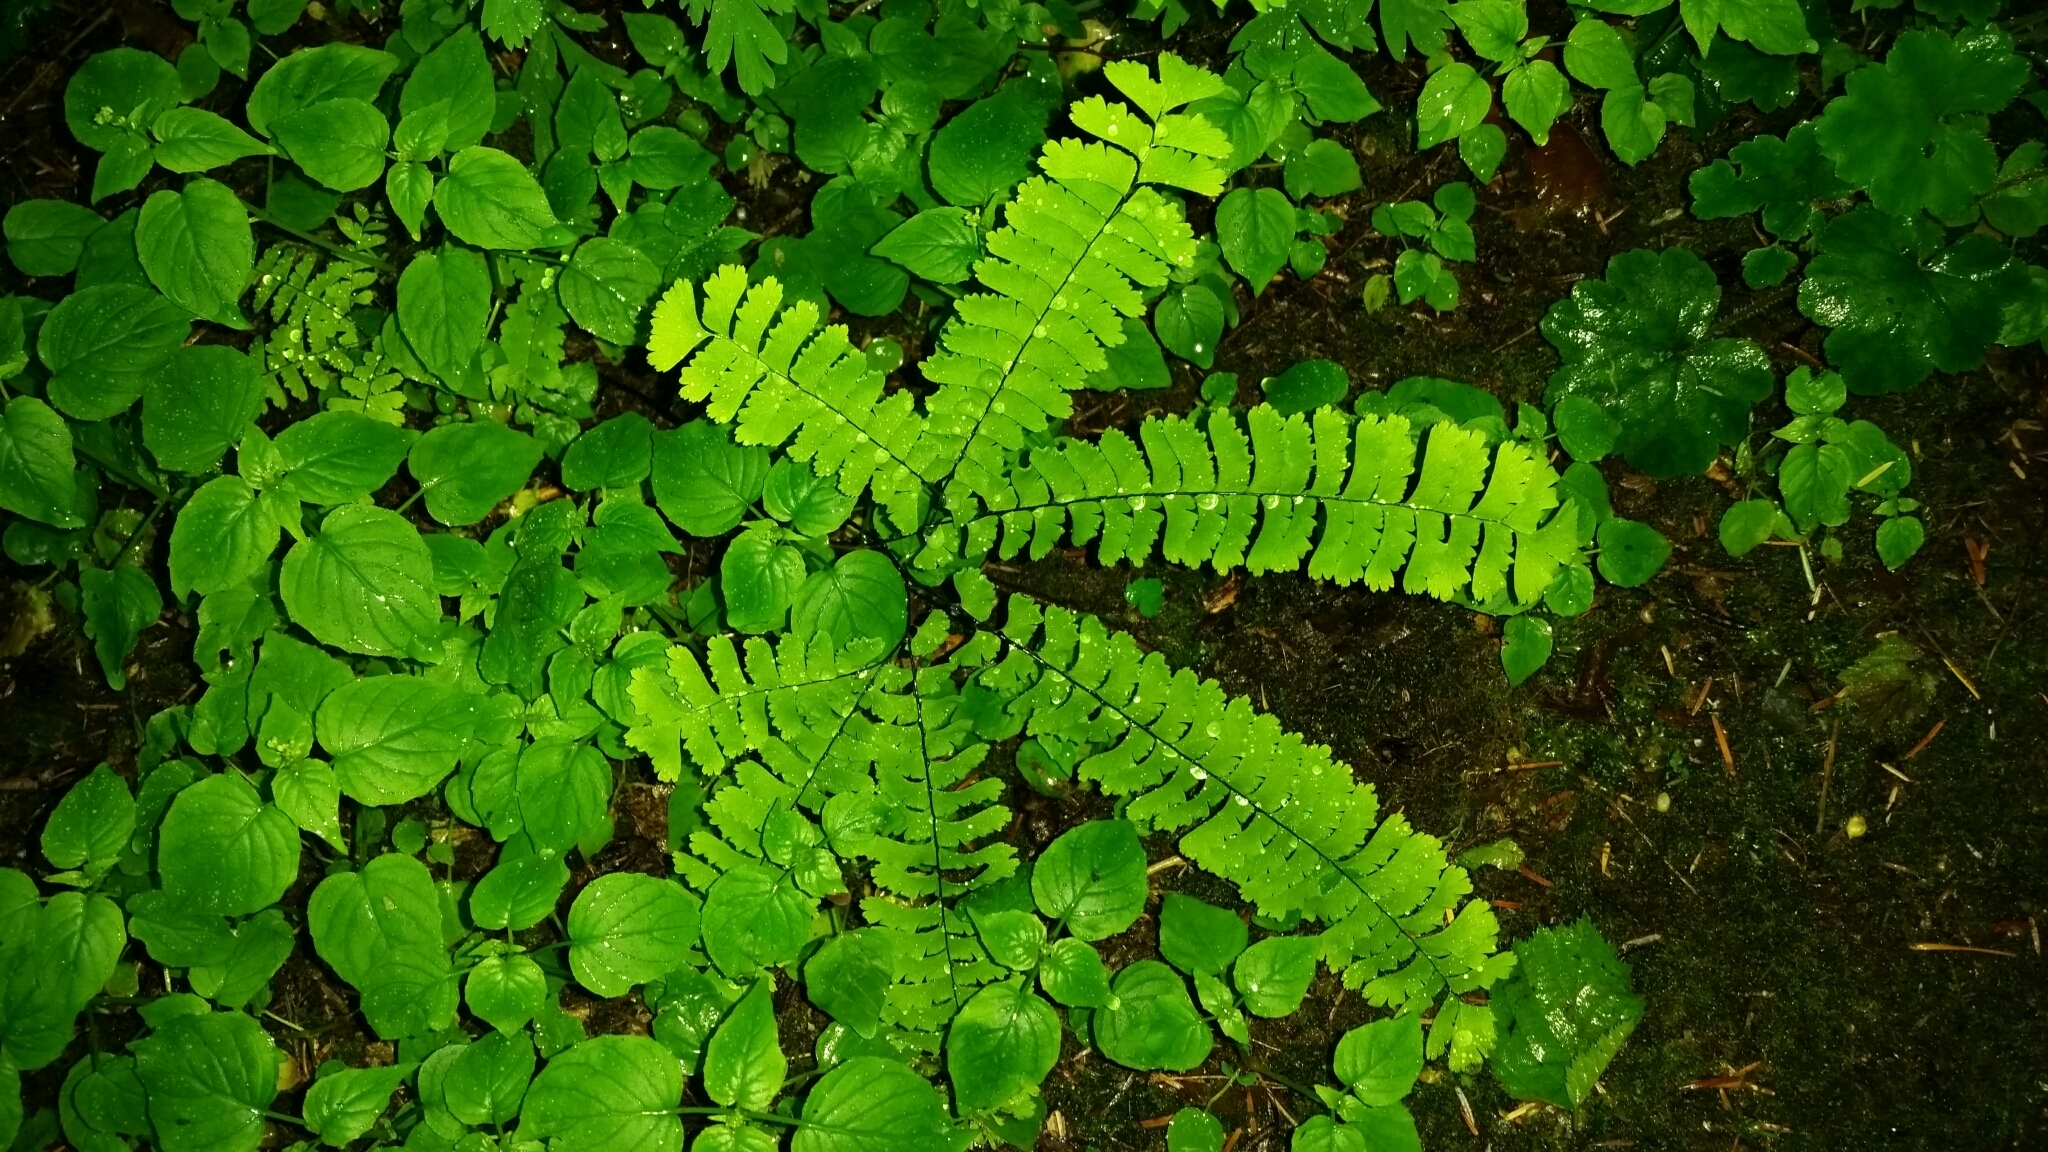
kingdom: Plantae
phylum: Tracheophyta
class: Polypodiopsida
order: Polypodiales
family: Pteridaceae
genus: Adiantum
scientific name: Adiantum aleuticum
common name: Aleutian maidenhair fern
